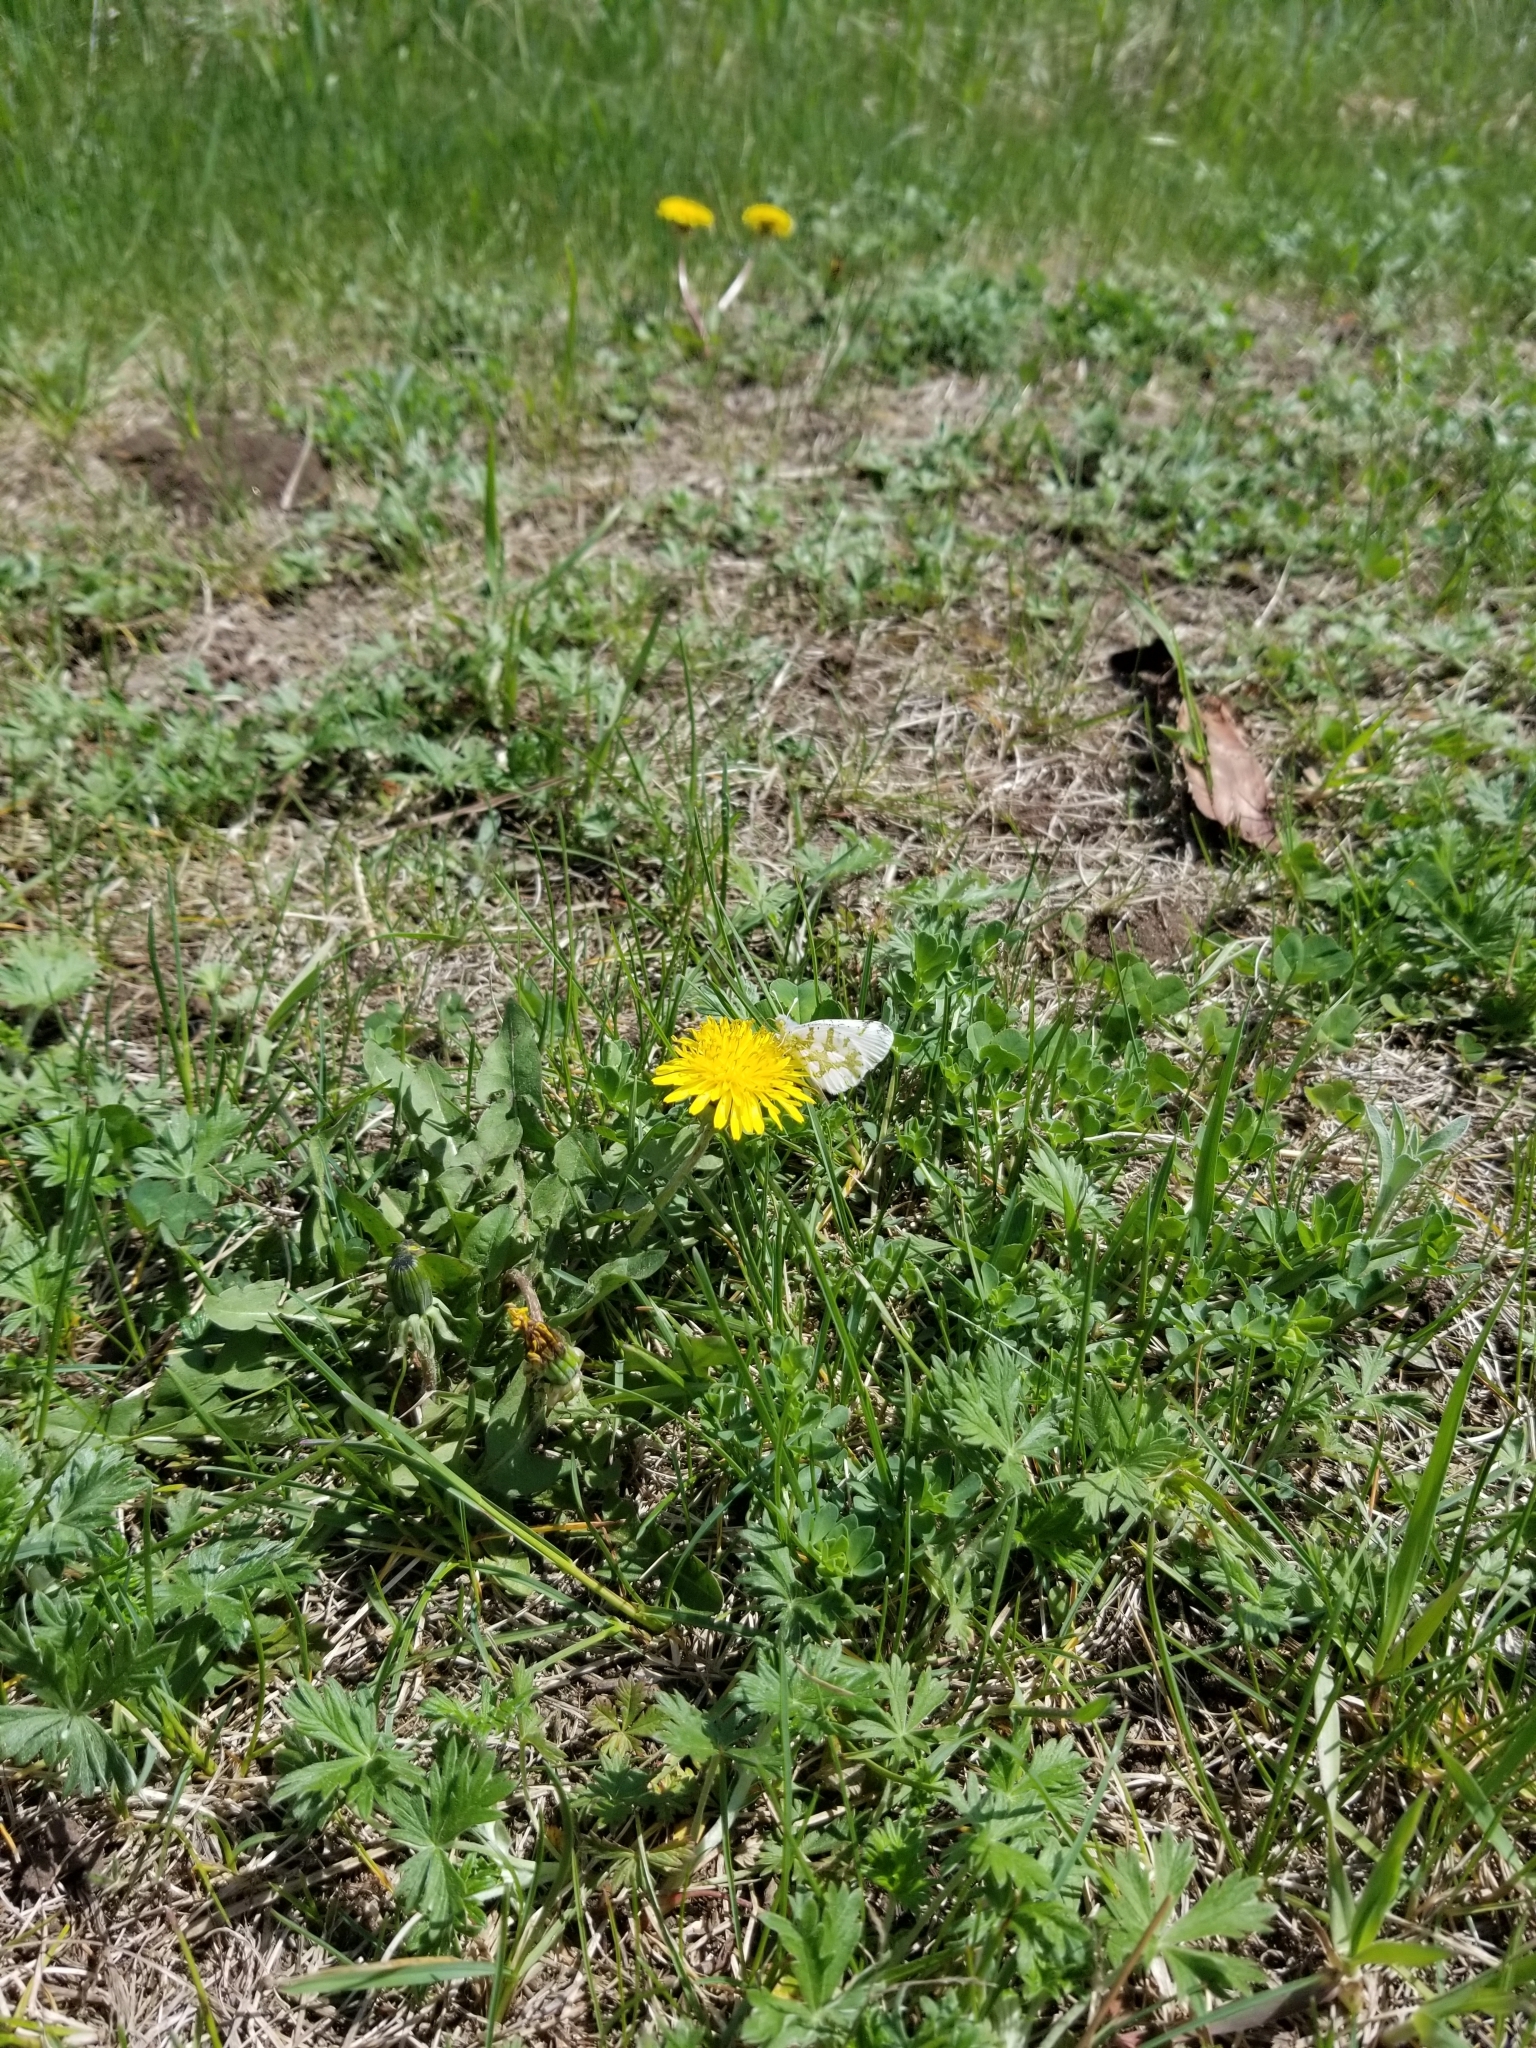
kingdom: Animalia
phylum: Arthropoda
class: Insecta
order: Lepidoptera
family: Pieridae
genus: Euchloe
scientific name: Euchloe olympia
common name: Olympia
